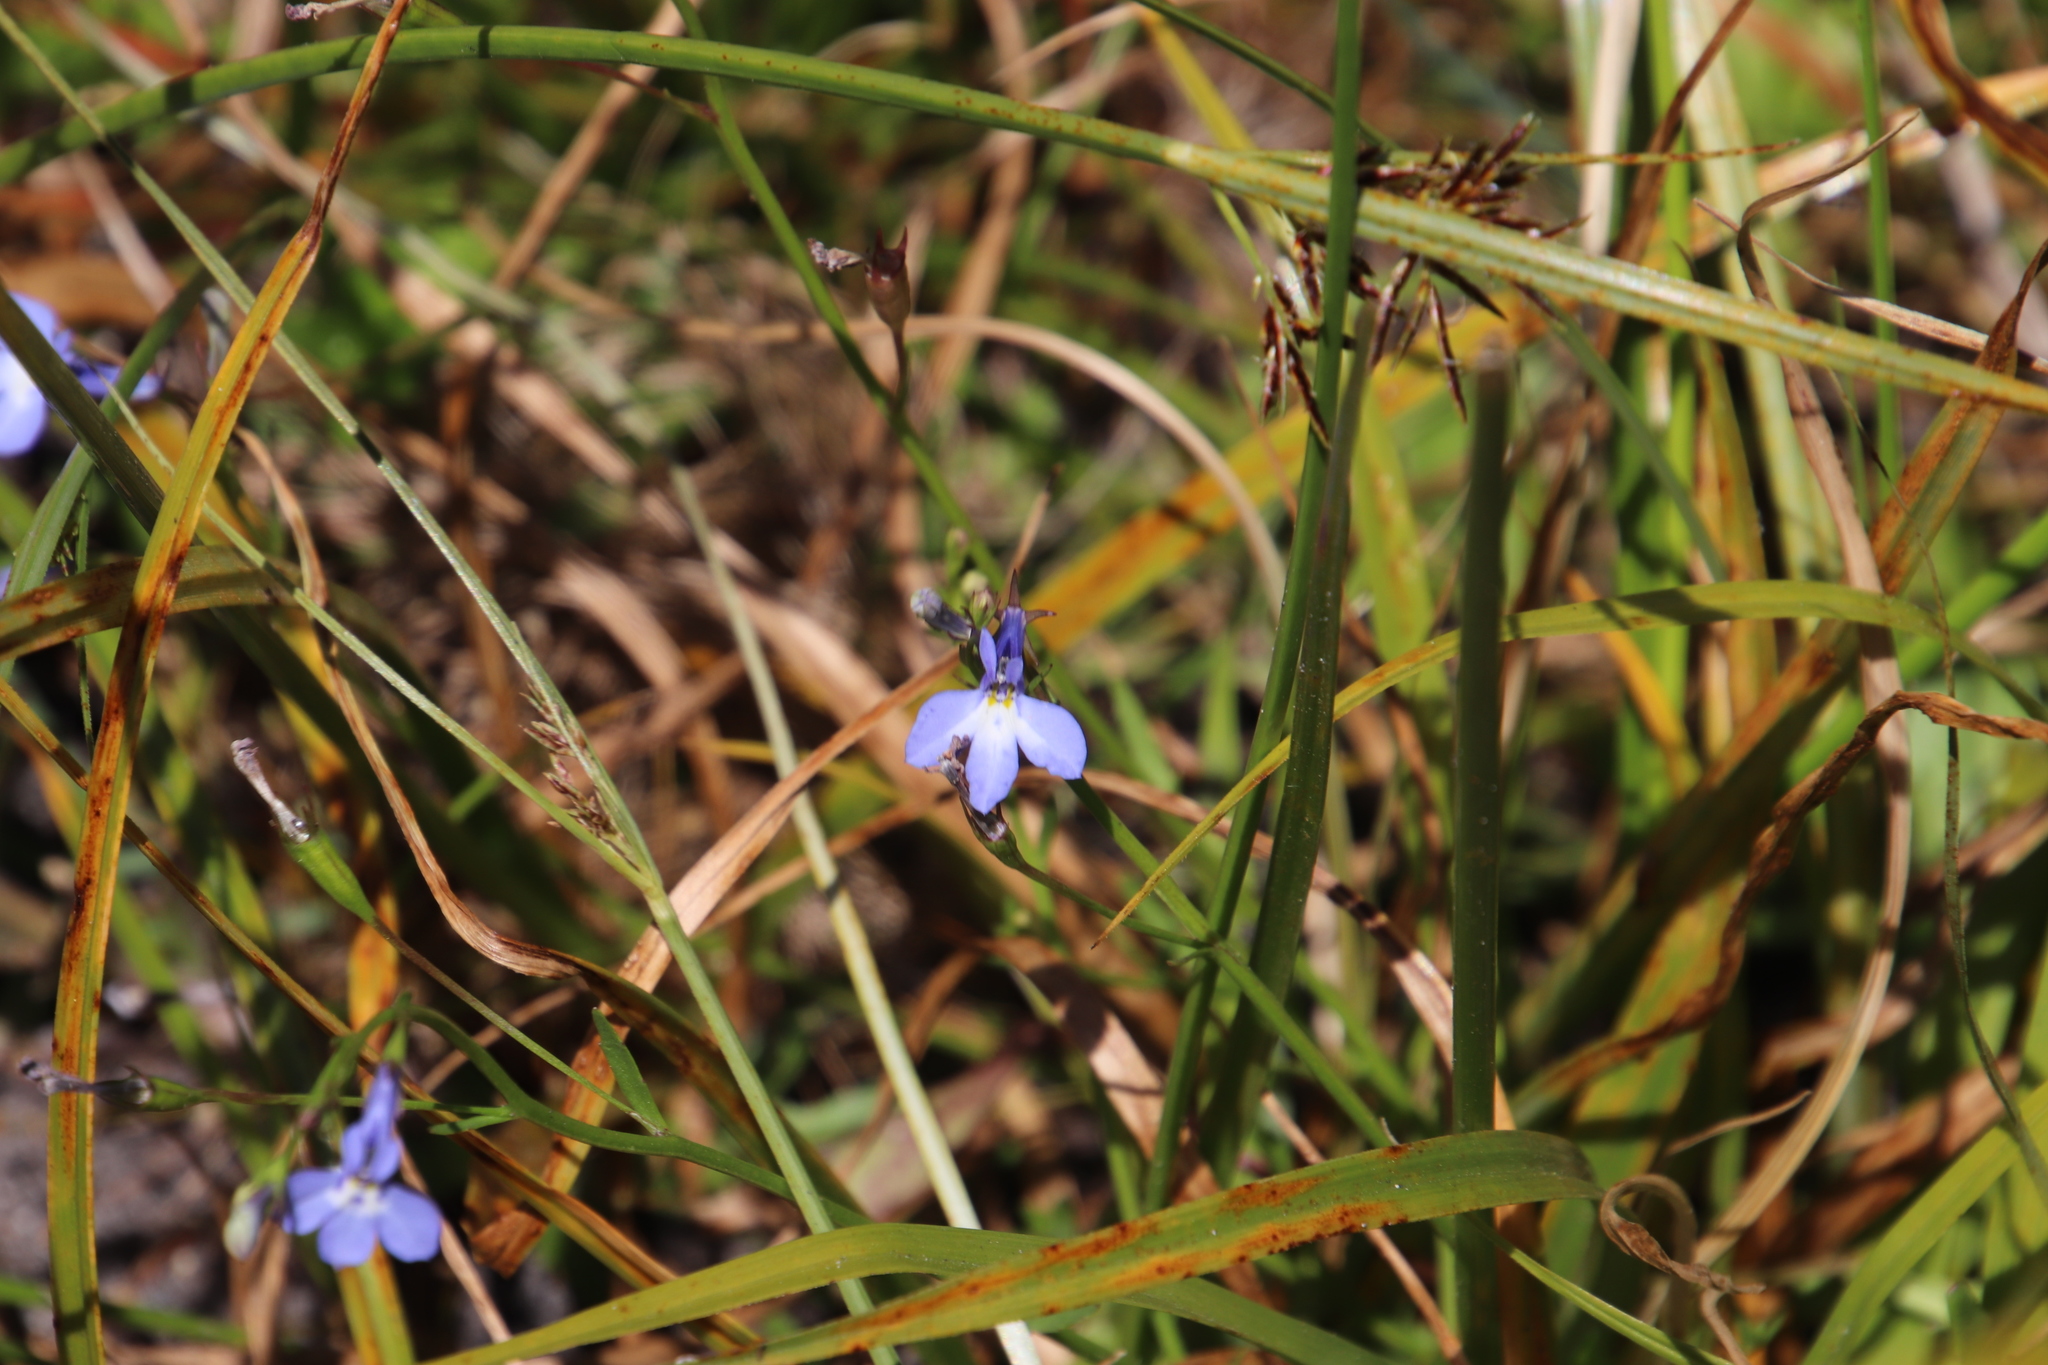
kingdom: Plantae
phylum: Tracheophyta
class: Magnoliopsida
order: Asterales
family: Campanulaceae
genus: Lobelia
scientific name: Lobelia erinus
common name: Edging lobelia
